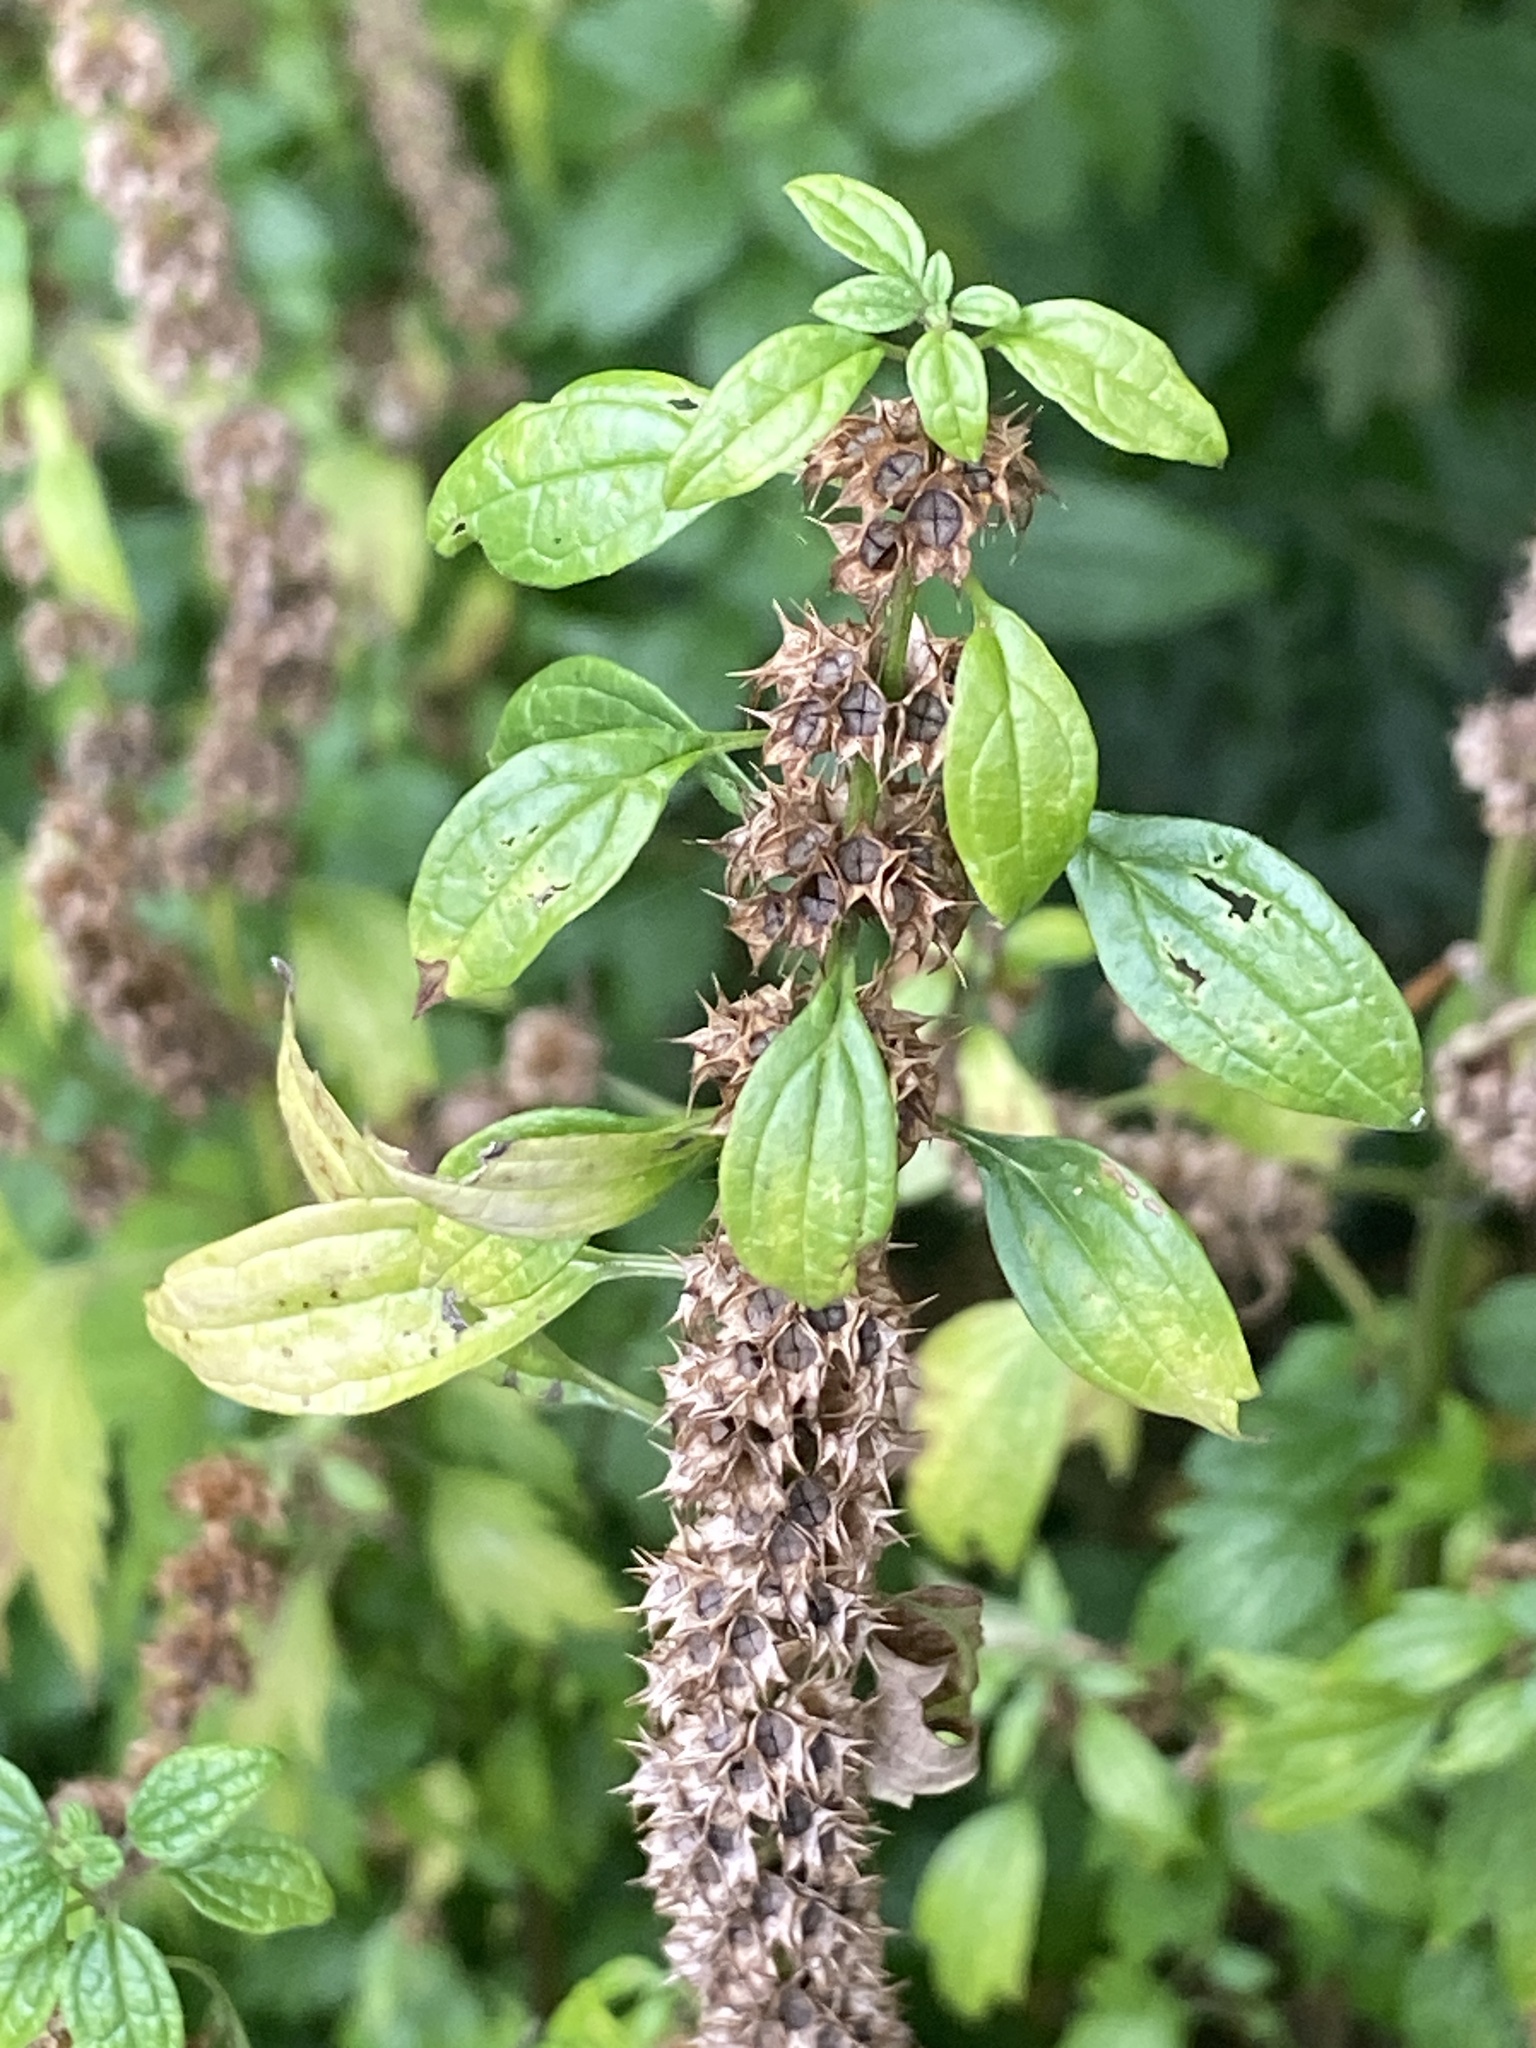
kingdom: Plantae
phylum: Tracheophyta
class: Magnoliopsida
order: Lamiales
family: Lamiaceae
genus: Leonurus
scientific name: Leonurus cardiaca
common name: Motherwort
